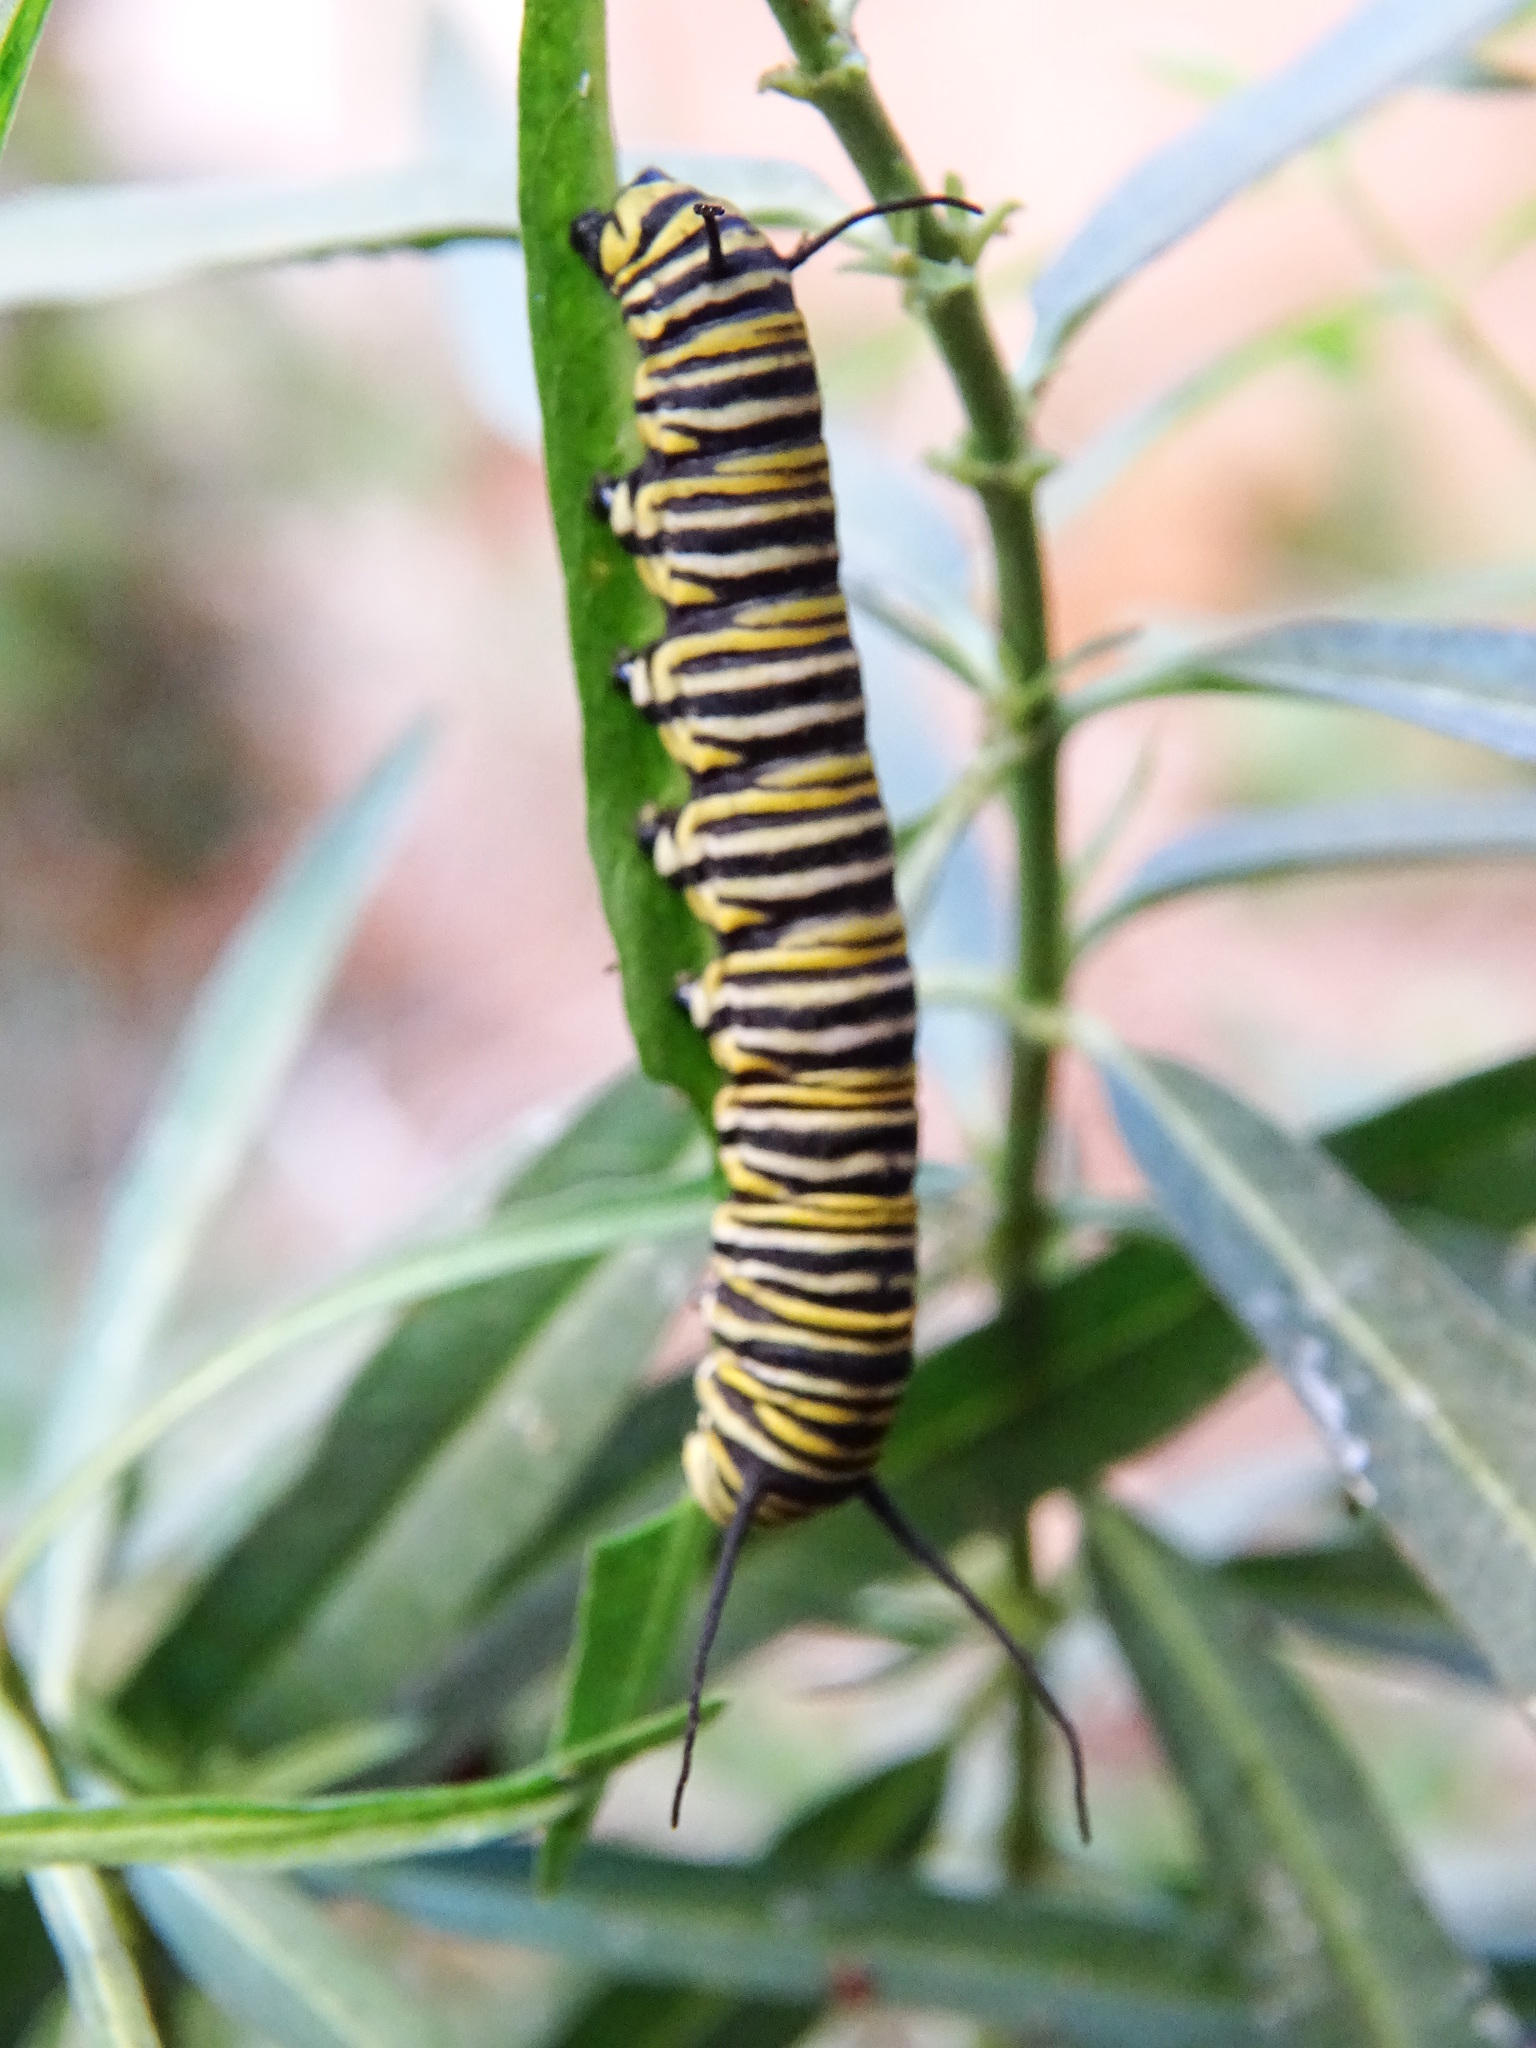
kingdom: Animalia
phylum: Arthropoda
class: Insecta
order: Lepidoptera
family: Nymphalidae
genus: Danaus
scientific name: Danaus plexippus
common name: Monarch
